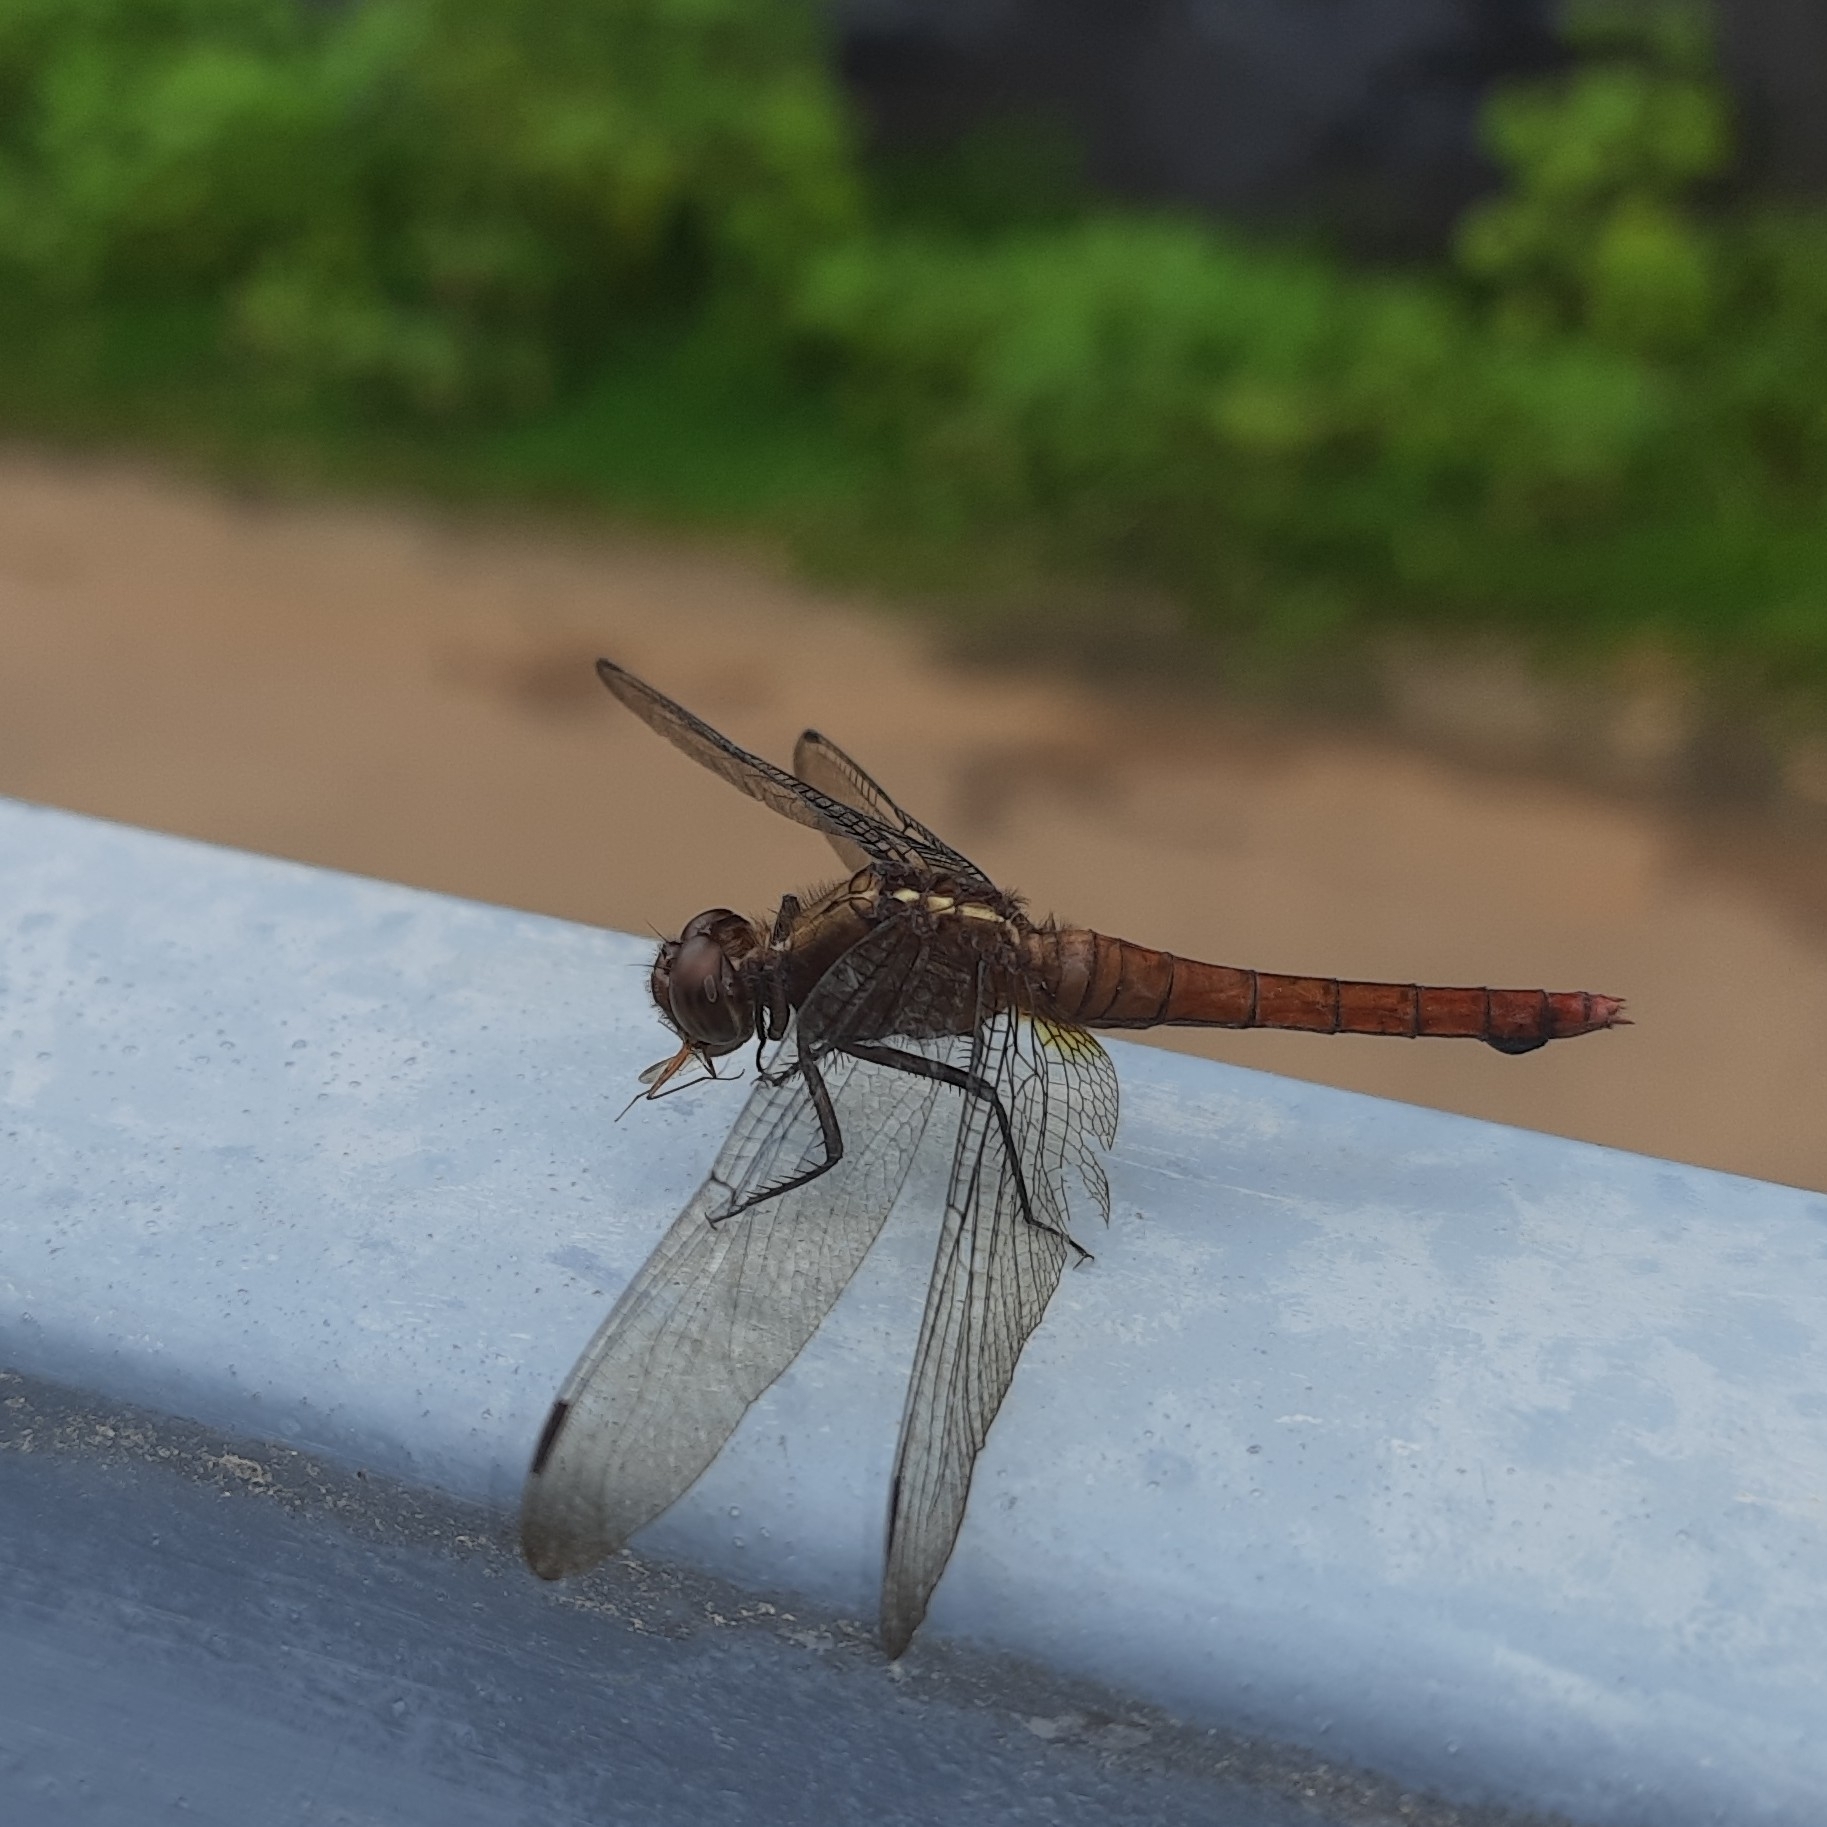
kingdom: Animalia
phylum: Arthropoda
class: Insecta
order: Odonata
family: Libellulidae
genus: Orthetrum
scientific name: Orthetrum chrysis
